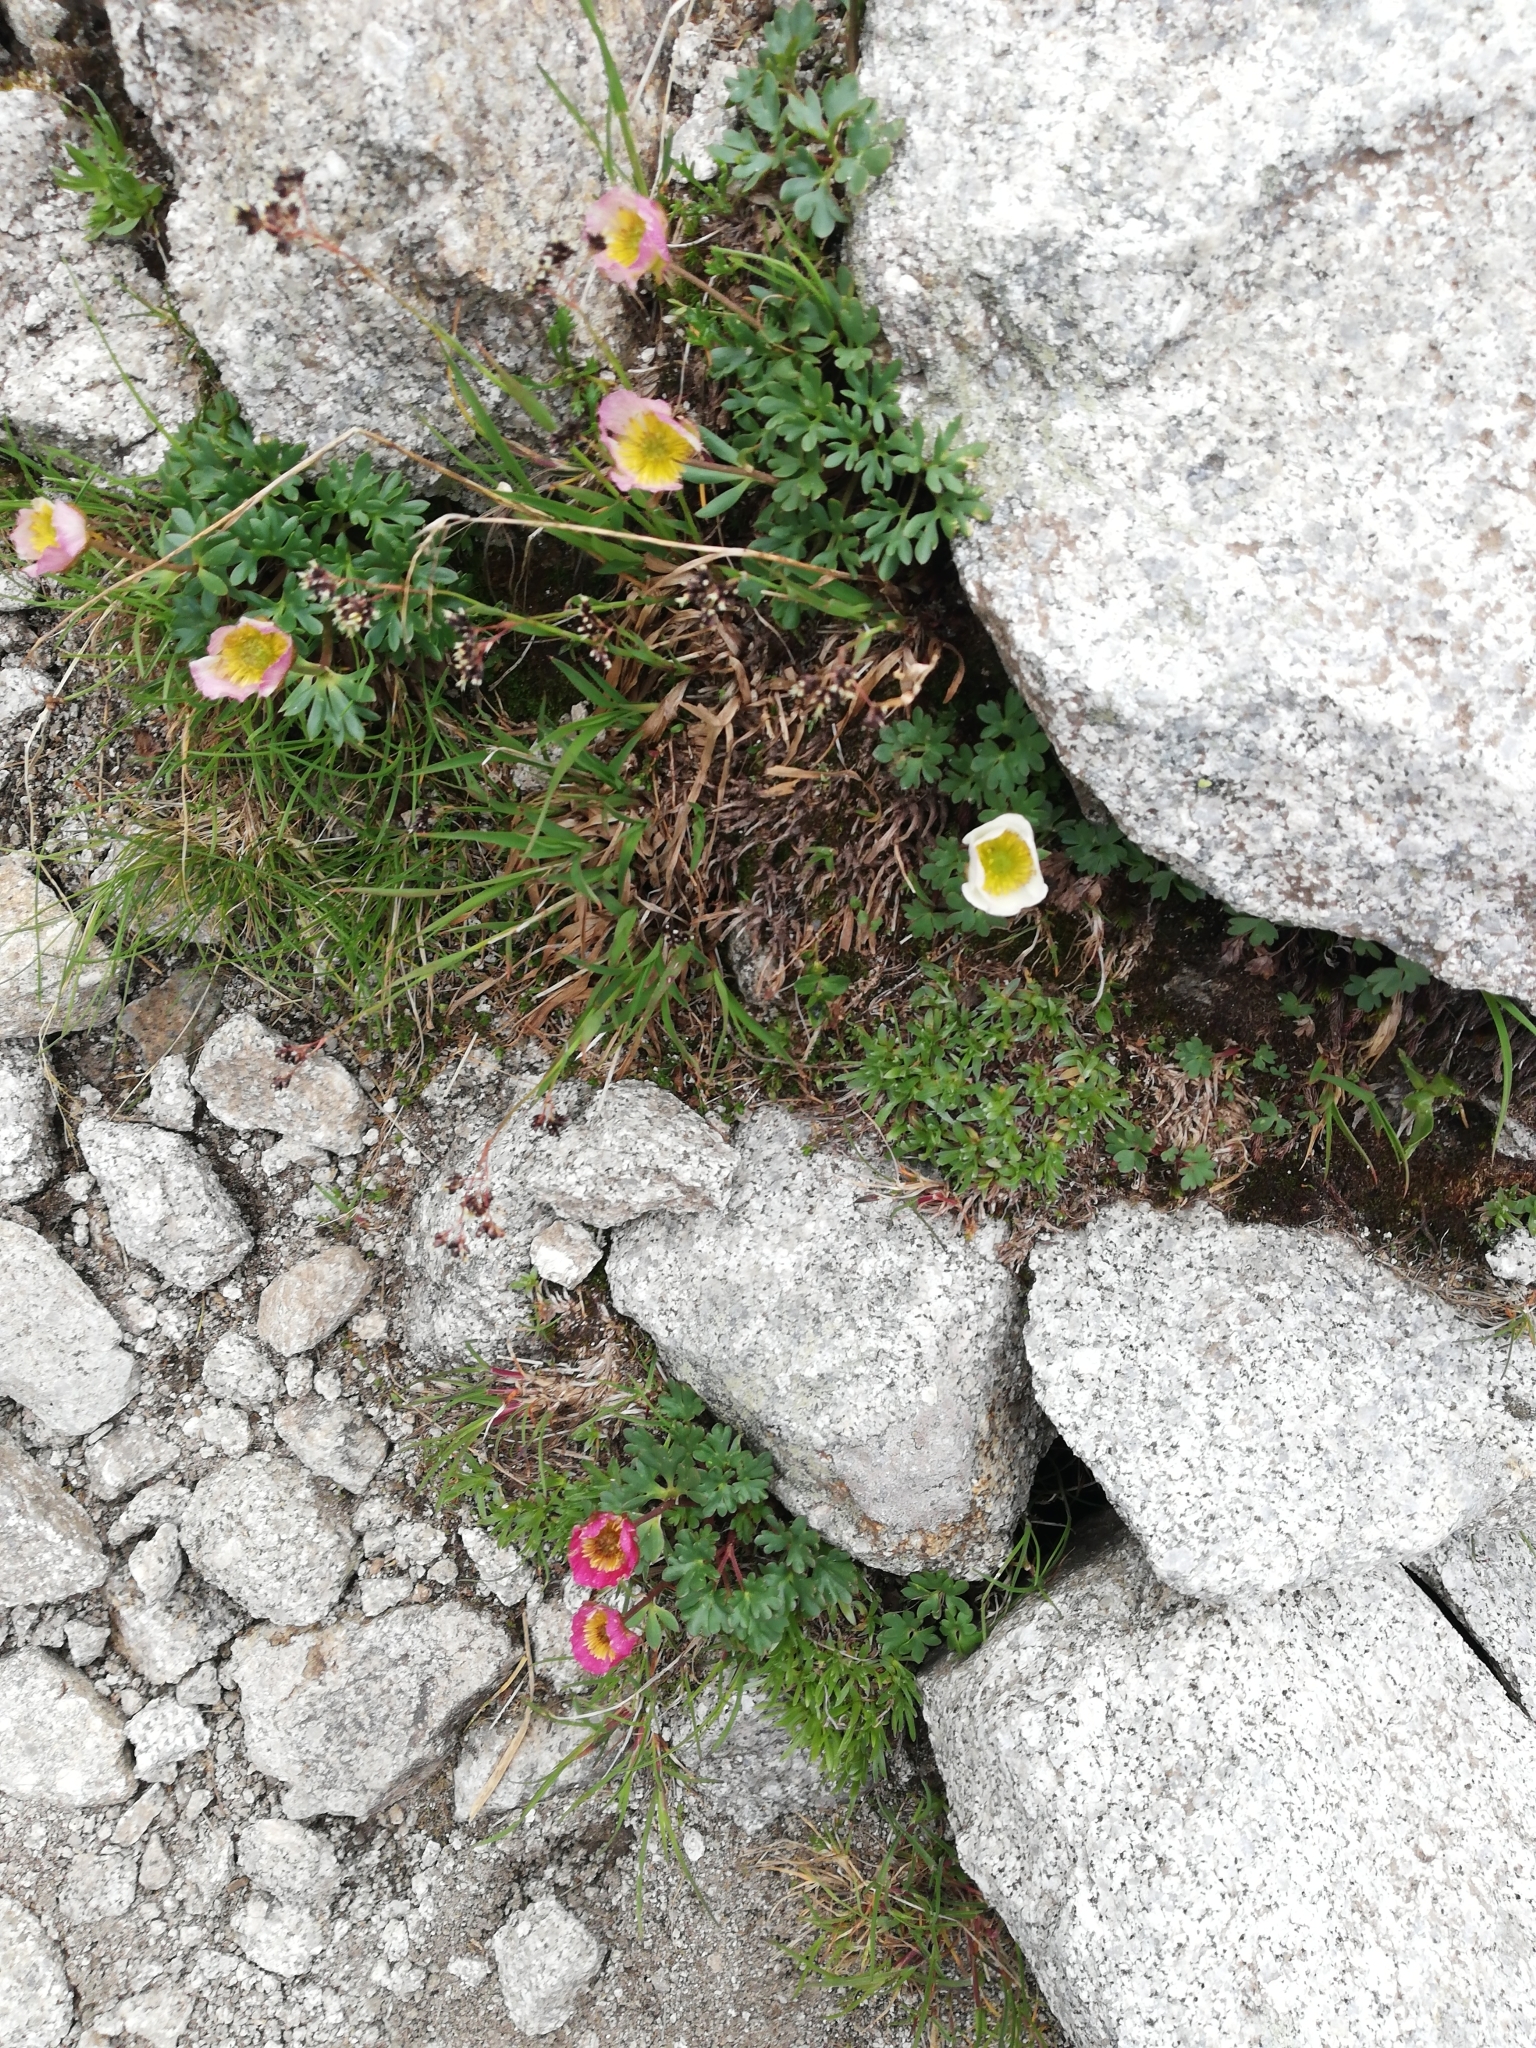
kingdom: Plantae
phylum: Tracheophyta
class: Magnoliopsida
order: Ranunculales
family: Ranunculaceae
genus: Ranunculus
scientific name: Ranunculus glacialis
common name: Glacier buttercup
